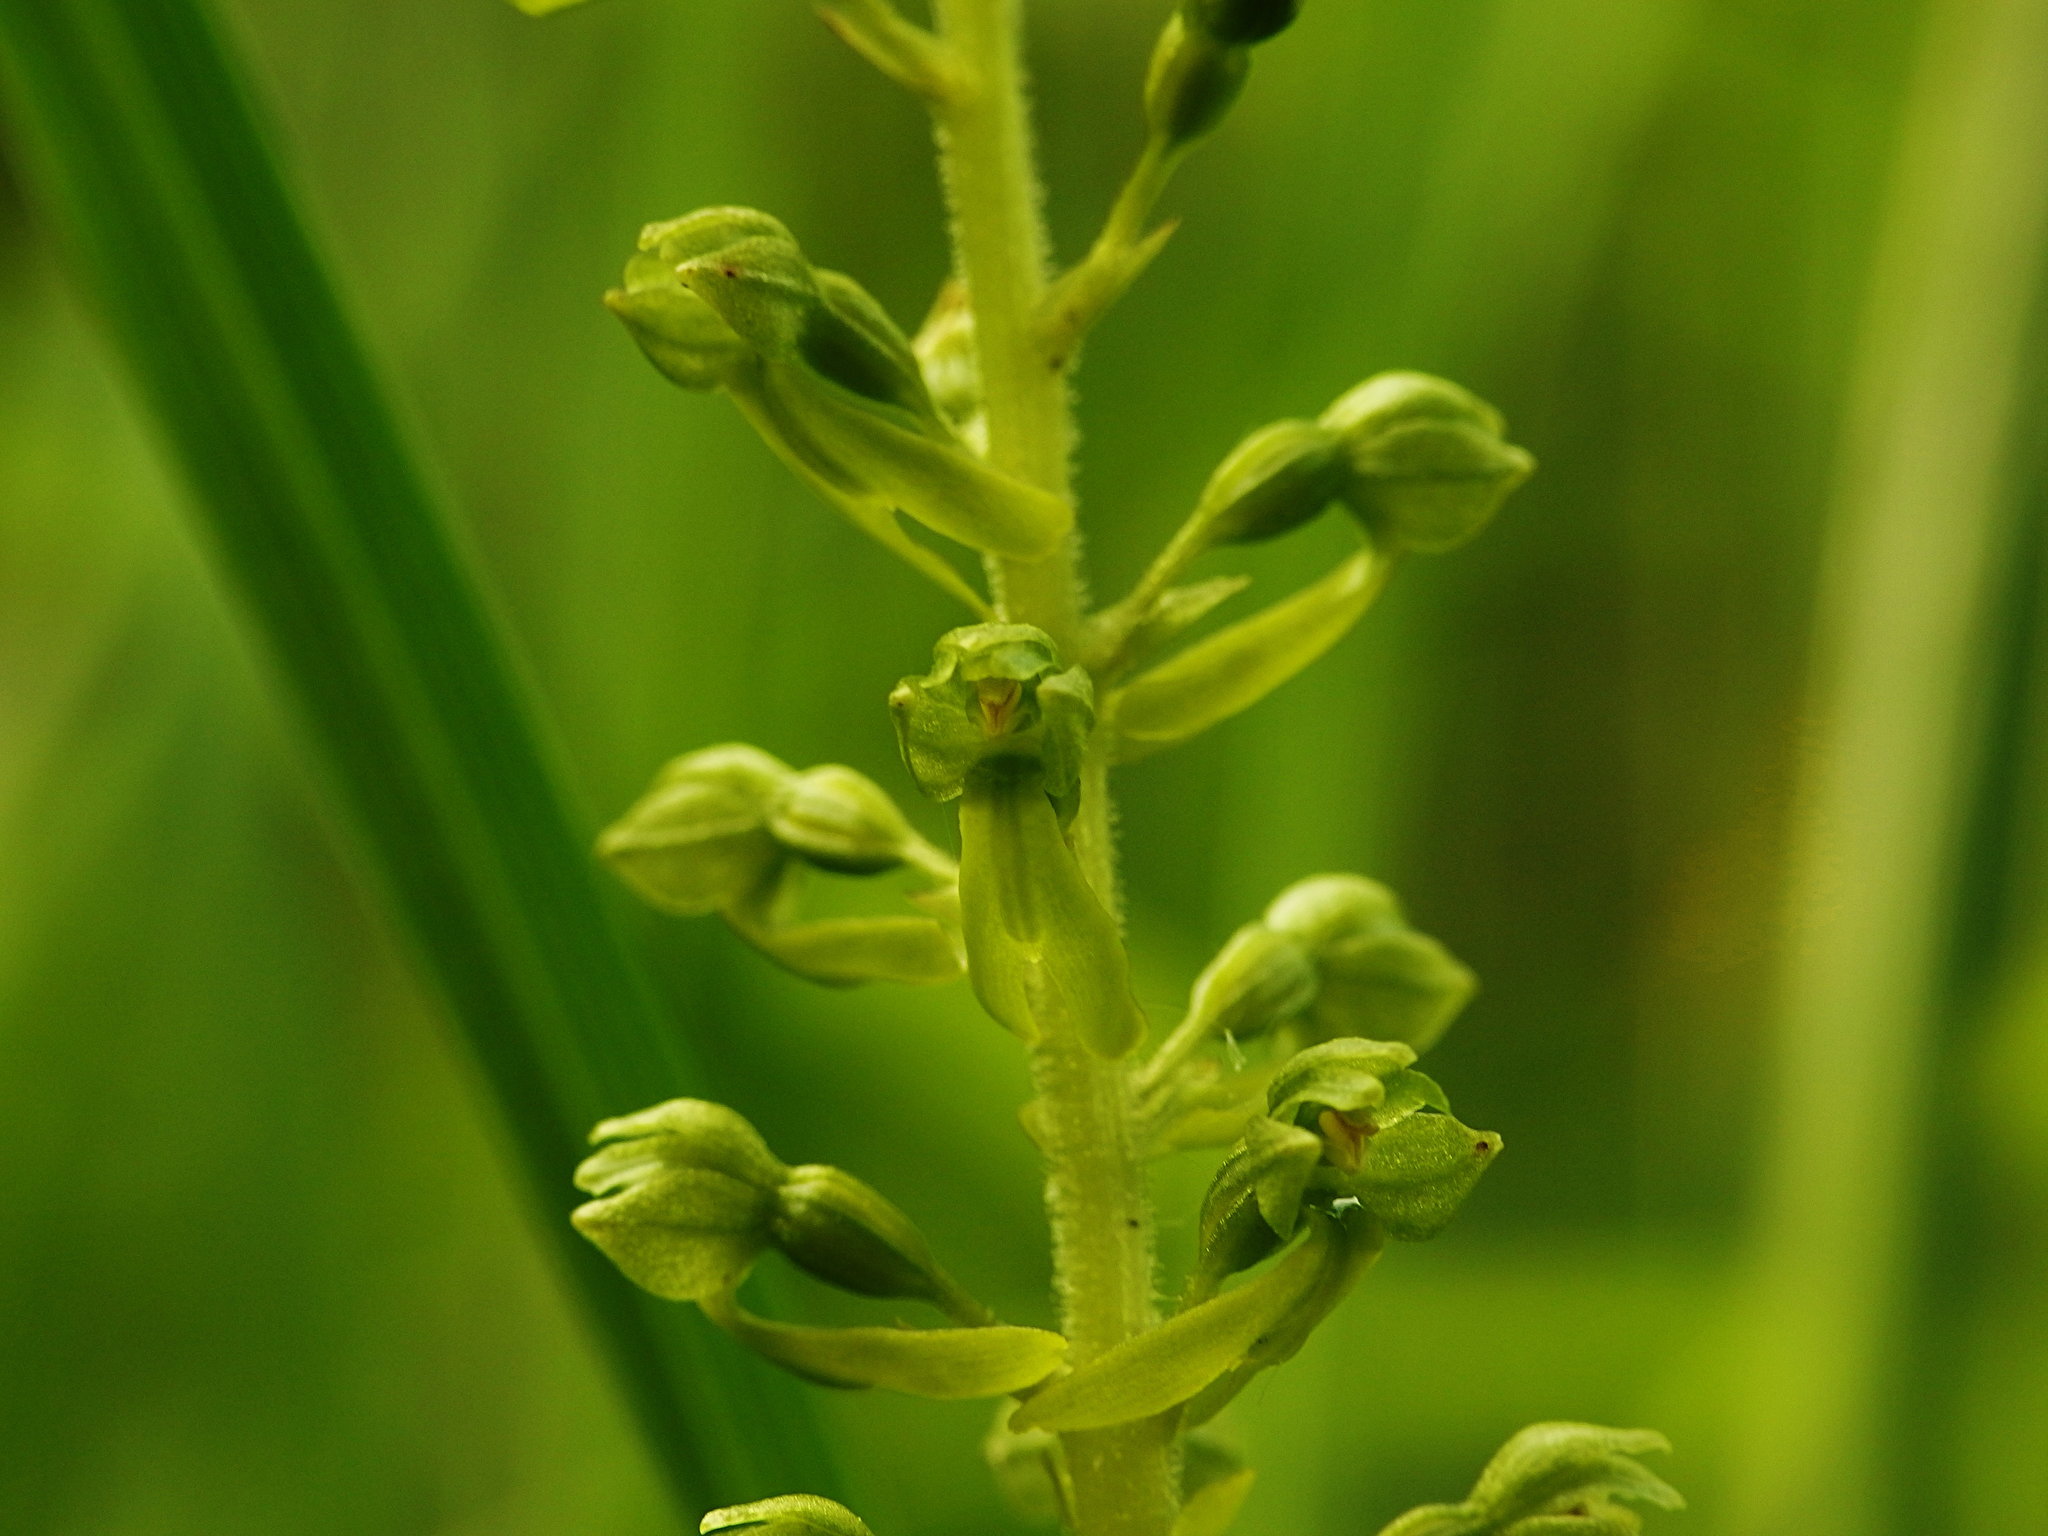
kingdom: Plantae
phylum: Tracheophyta
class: Liliopsida
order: Asparagales
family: Orchidaceae
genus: Neottia
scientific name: Neottia ovata
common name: Common twayblade
